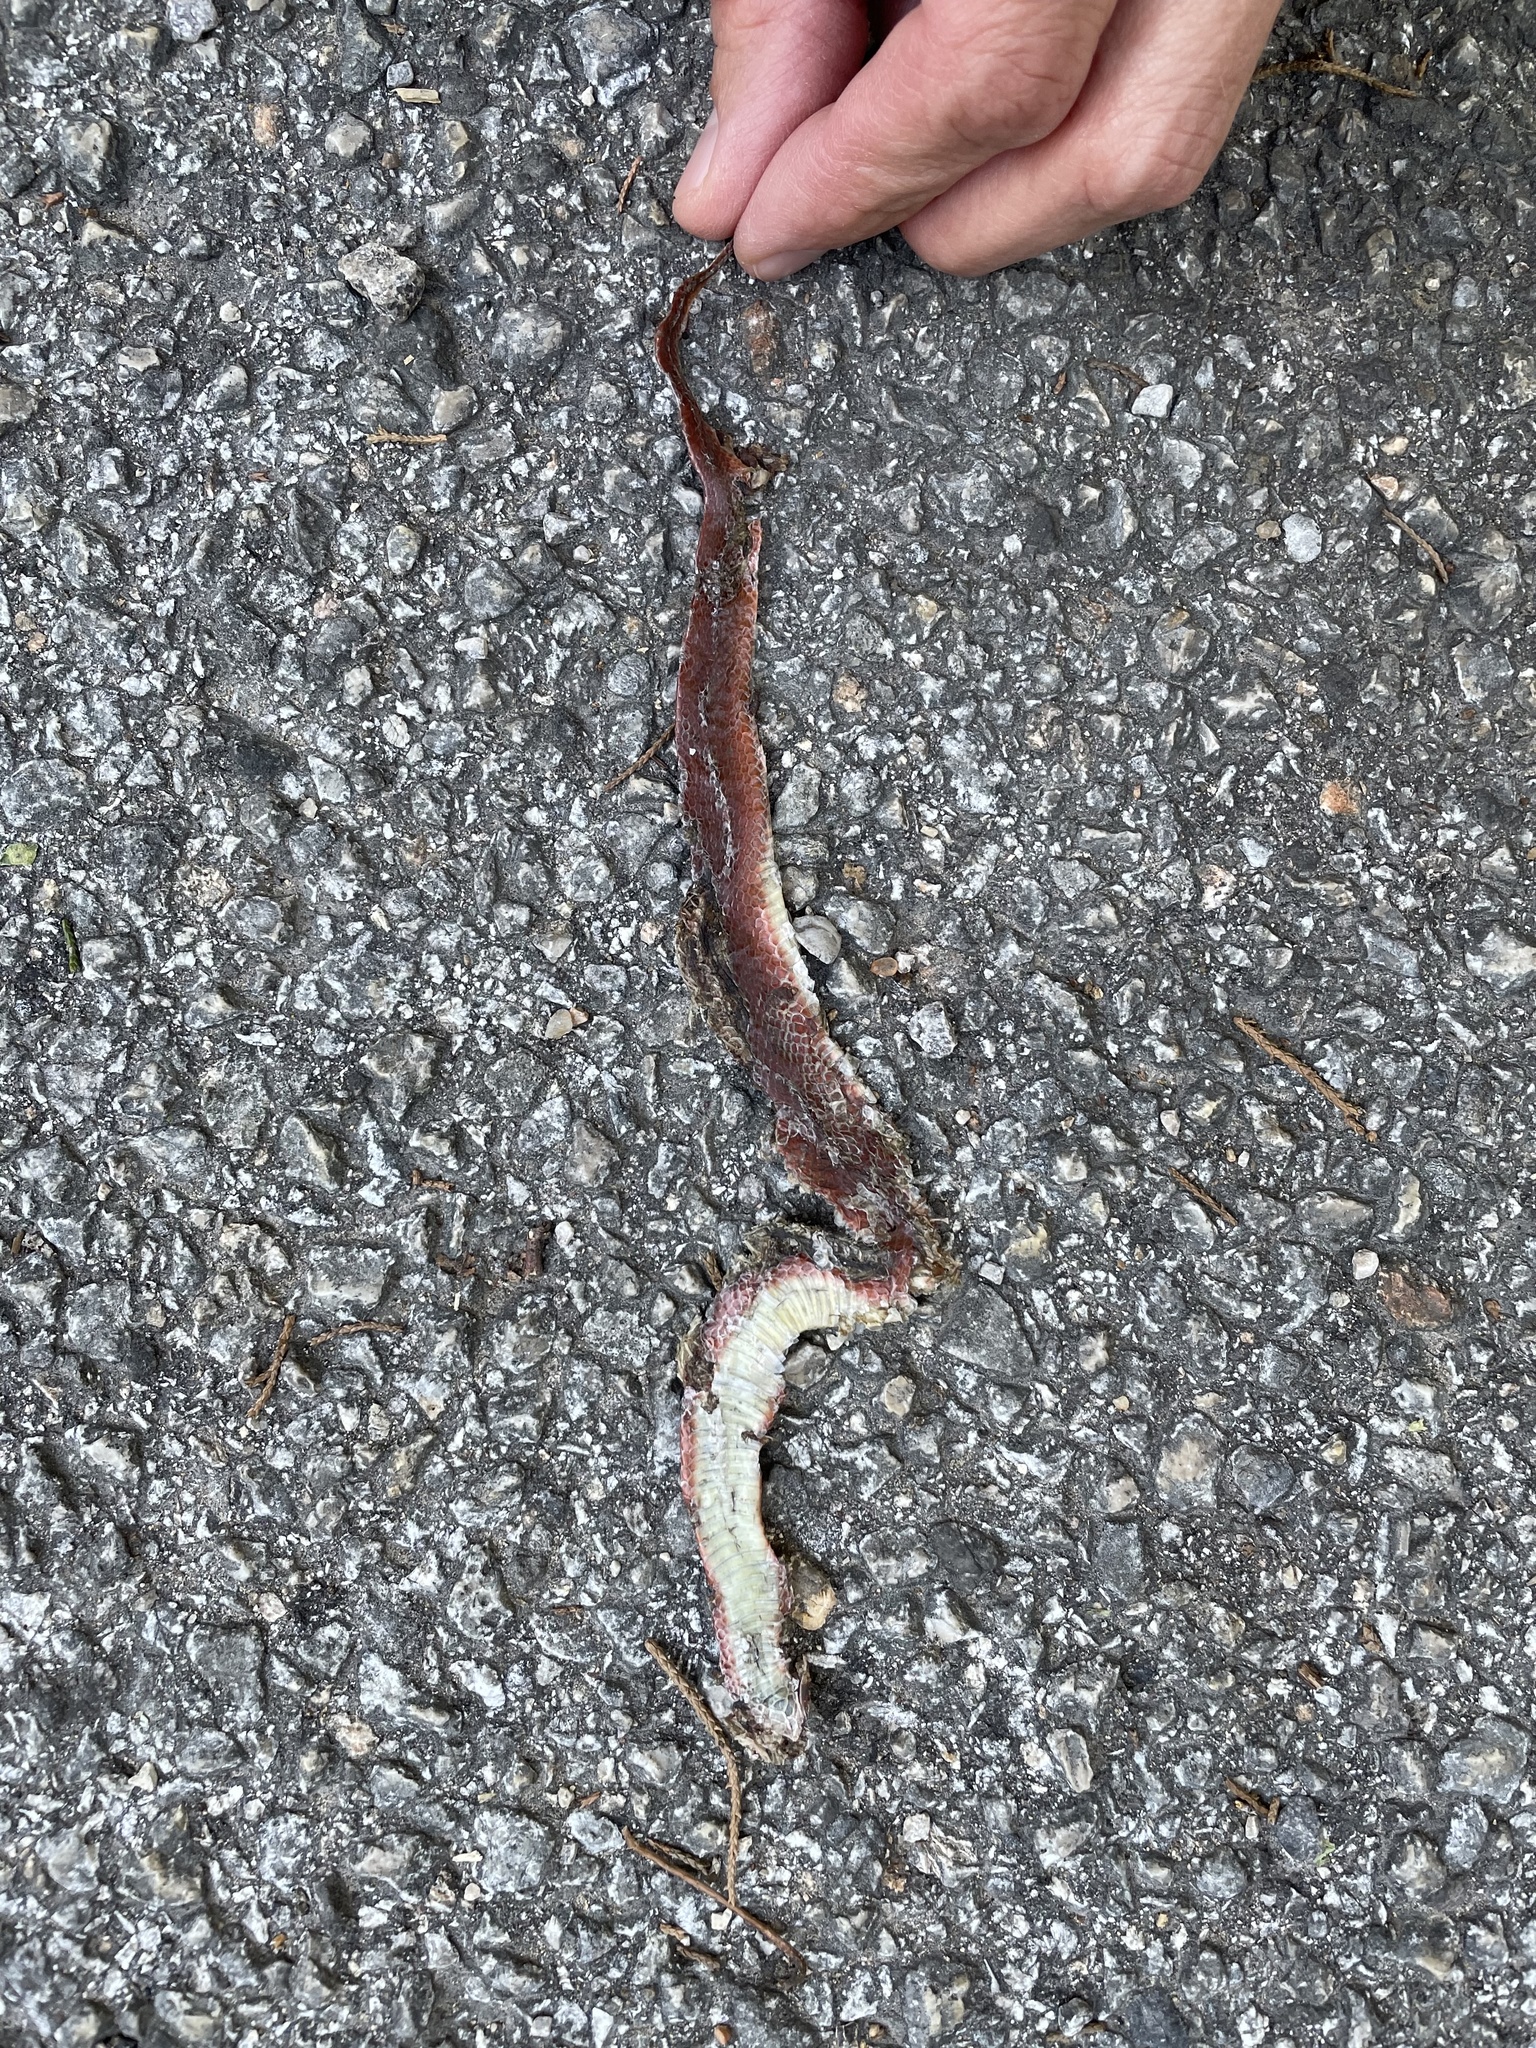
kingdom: Animalia
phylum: Chordata
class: Squamata
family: Colubridae
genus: Virginia
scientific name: Virginia valeriae
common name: Smooth earth snake
